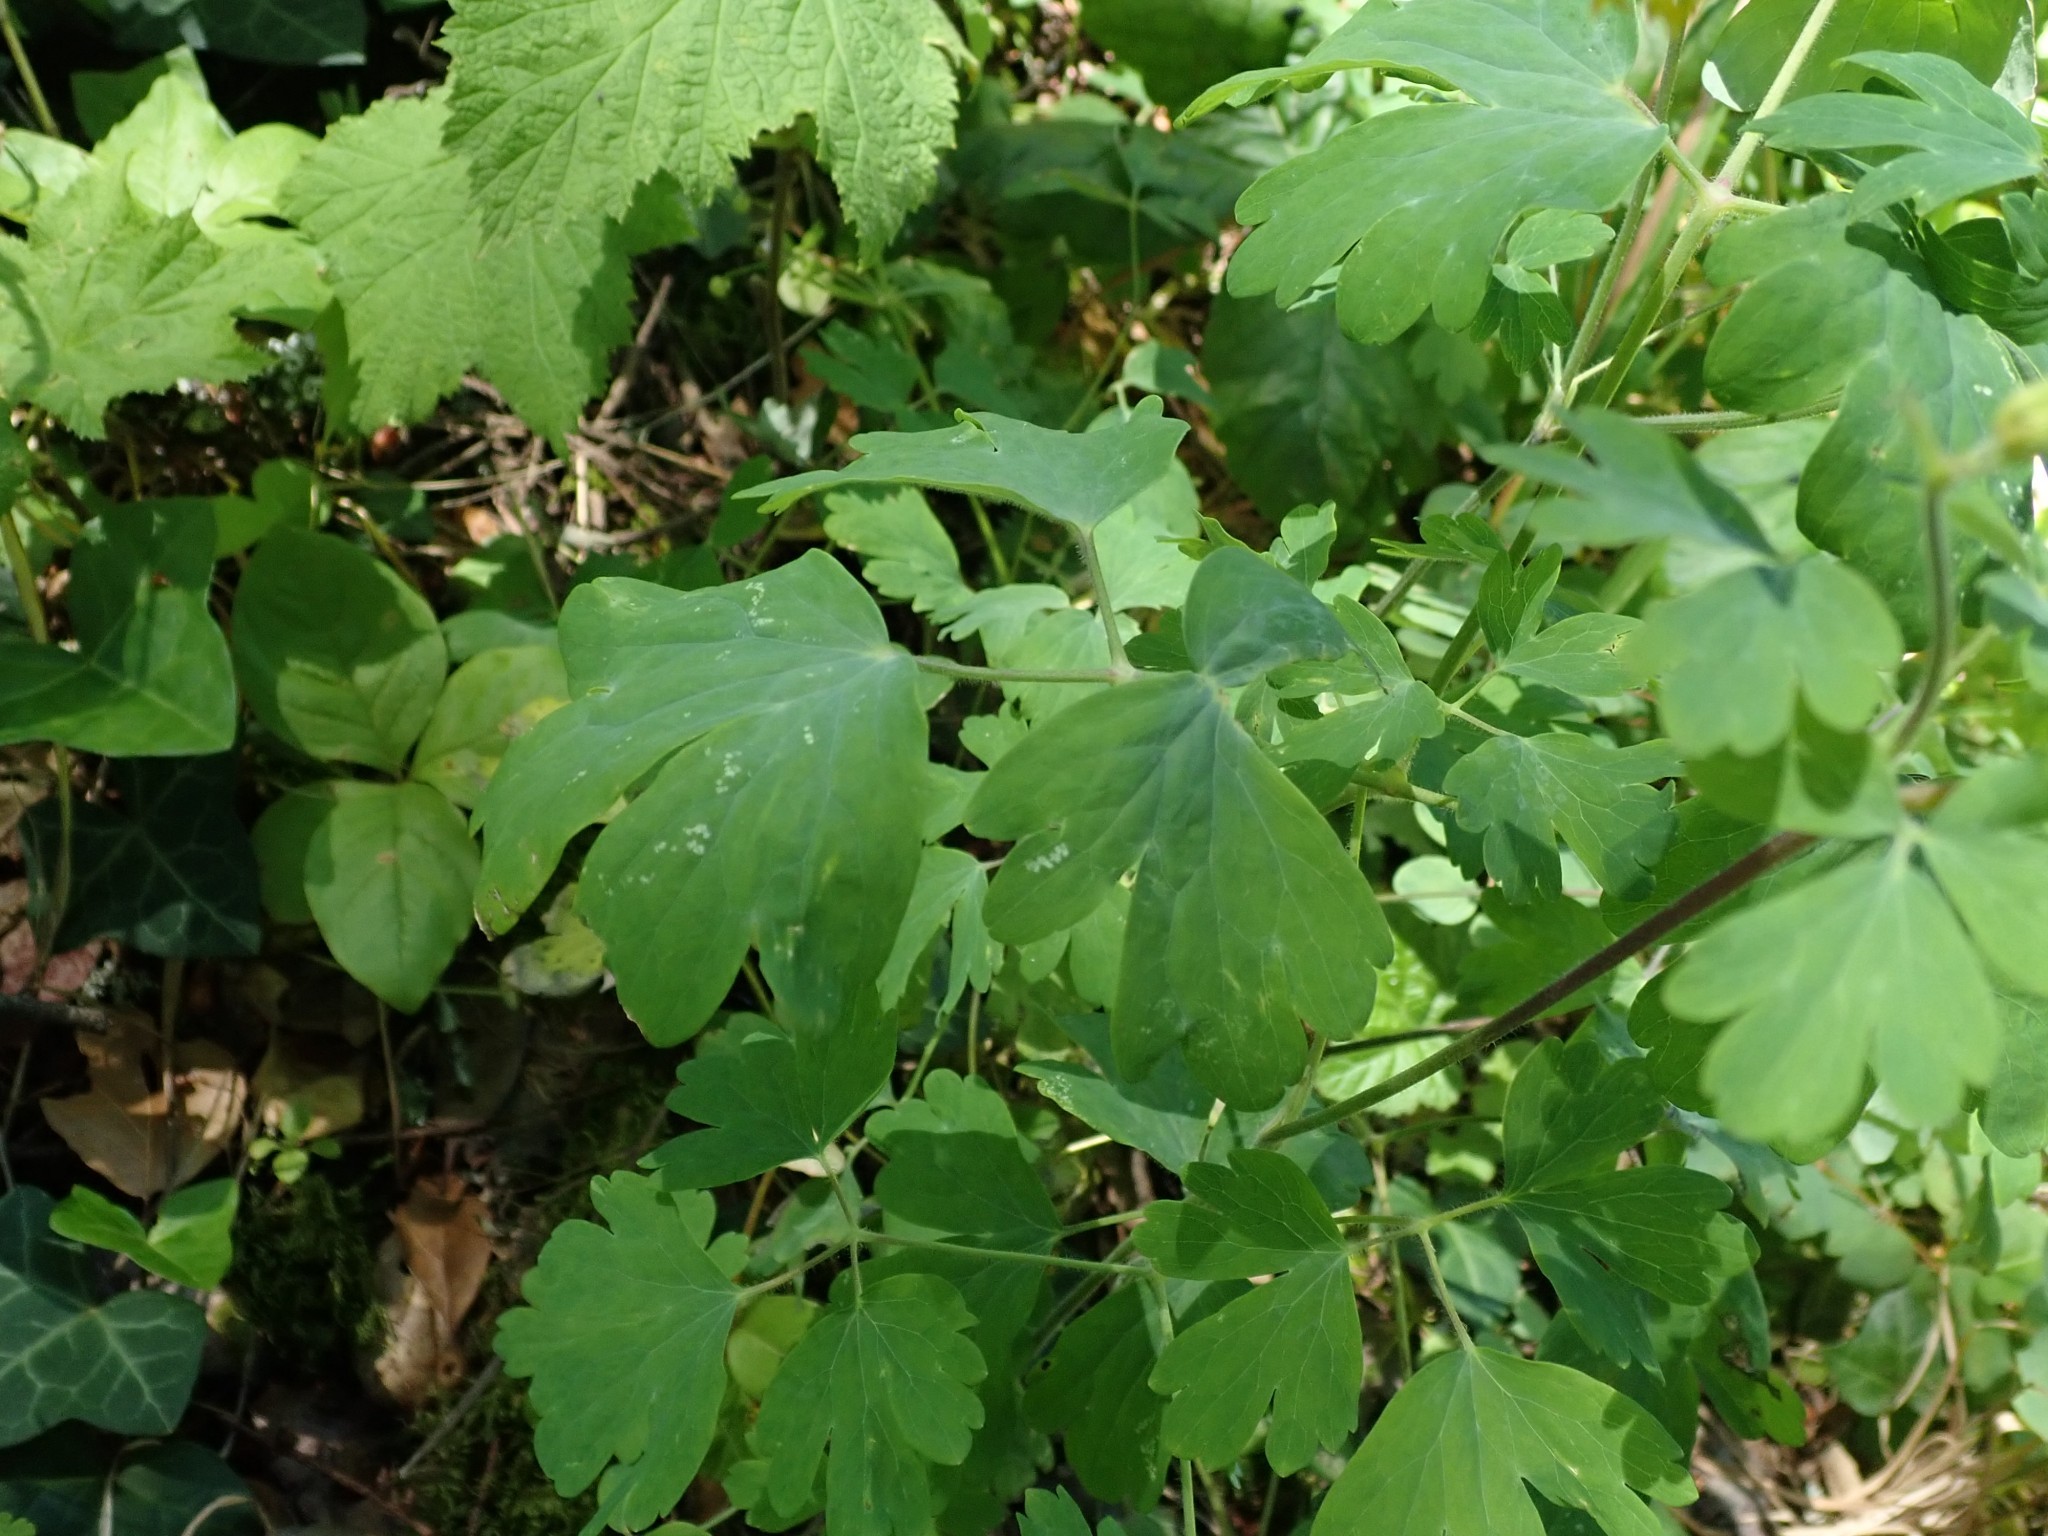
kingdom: Plantae
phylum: Tracheophyta
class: Magnoliopsida
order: Ranunculales
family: Ranunculaceae
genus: Aquilegia
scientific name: Aquilegia formosa
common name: Sitka columbine
